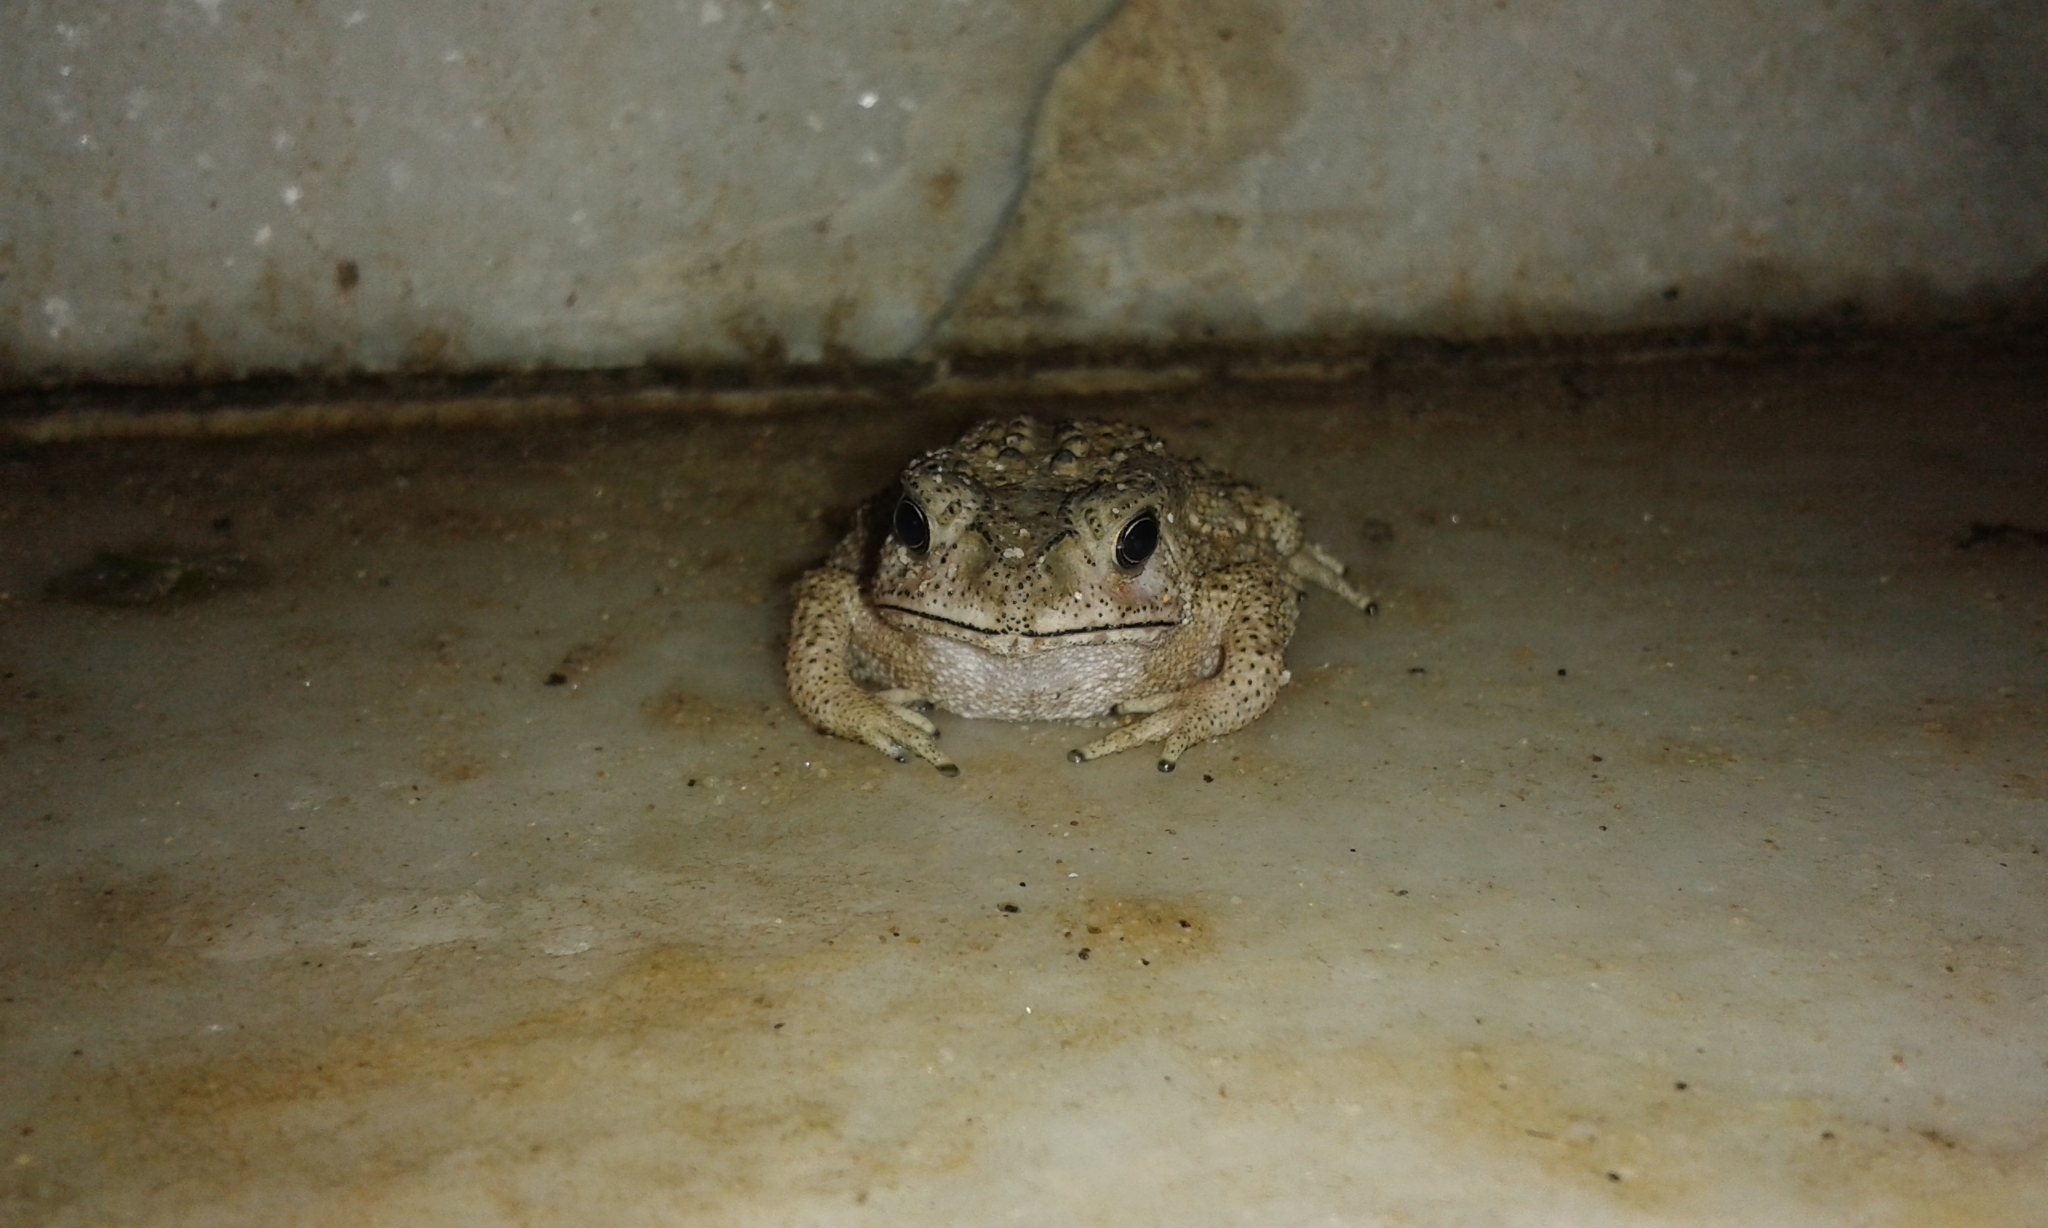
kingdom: Animalia
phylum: Chordata
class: Amphibia
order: Anura
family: Bufonidae
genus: Duttaphrynus
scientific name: Duttaphrynus melanostictus
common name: Common sunda toad
